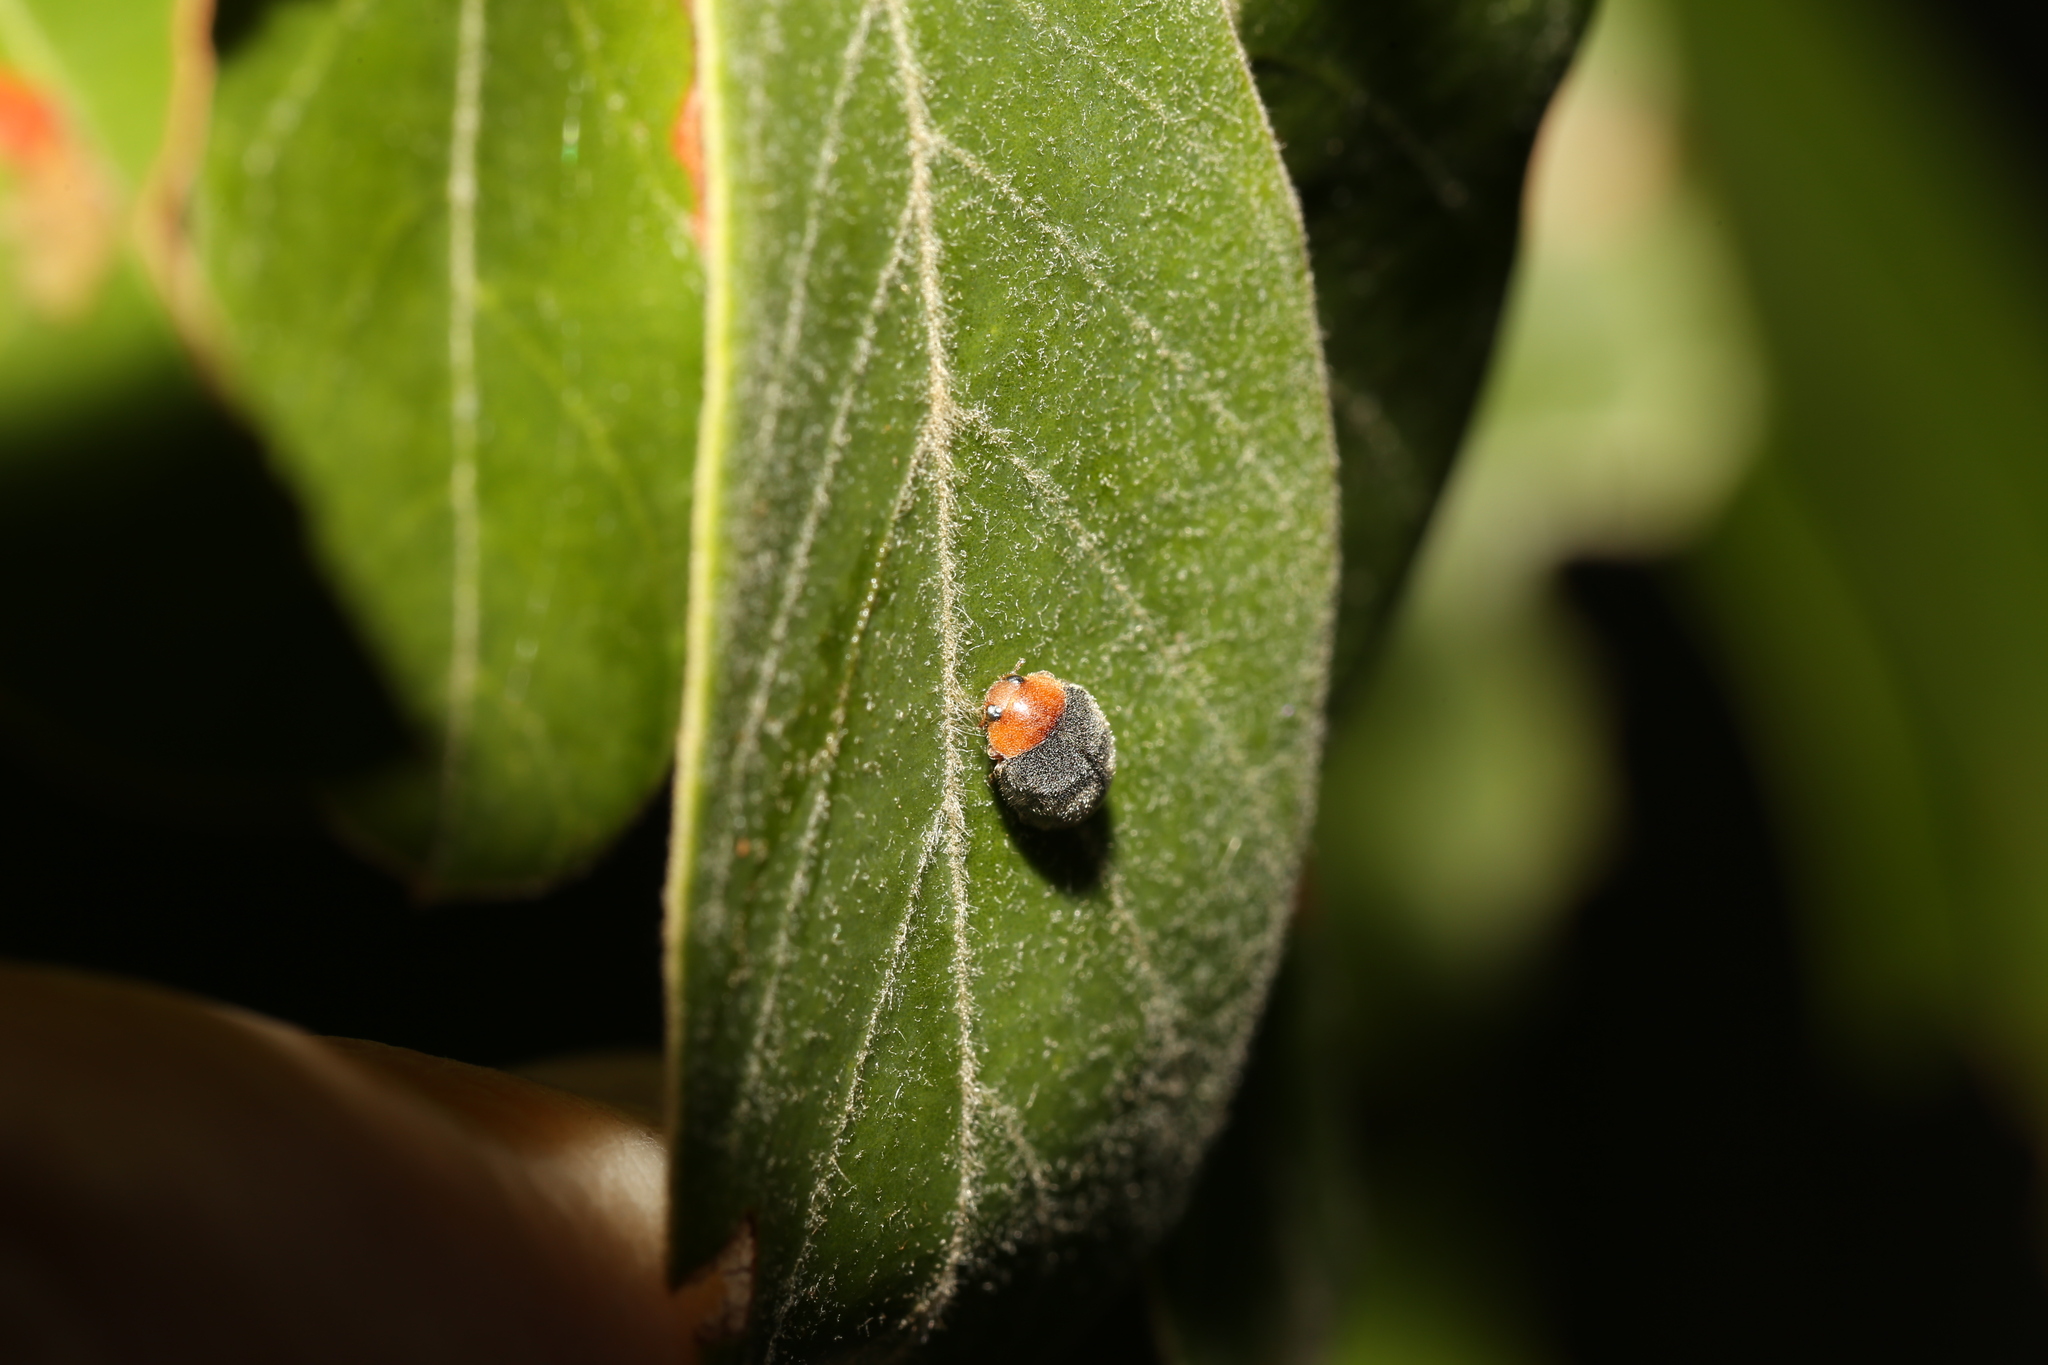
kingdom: Animalia
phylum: Arthropoda
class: Insecta
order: Coleoptera
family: Coccinellidae
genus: Cryptolaemus
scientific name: Cryptolaemus montrouzieri
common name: Mealybug destroyer
